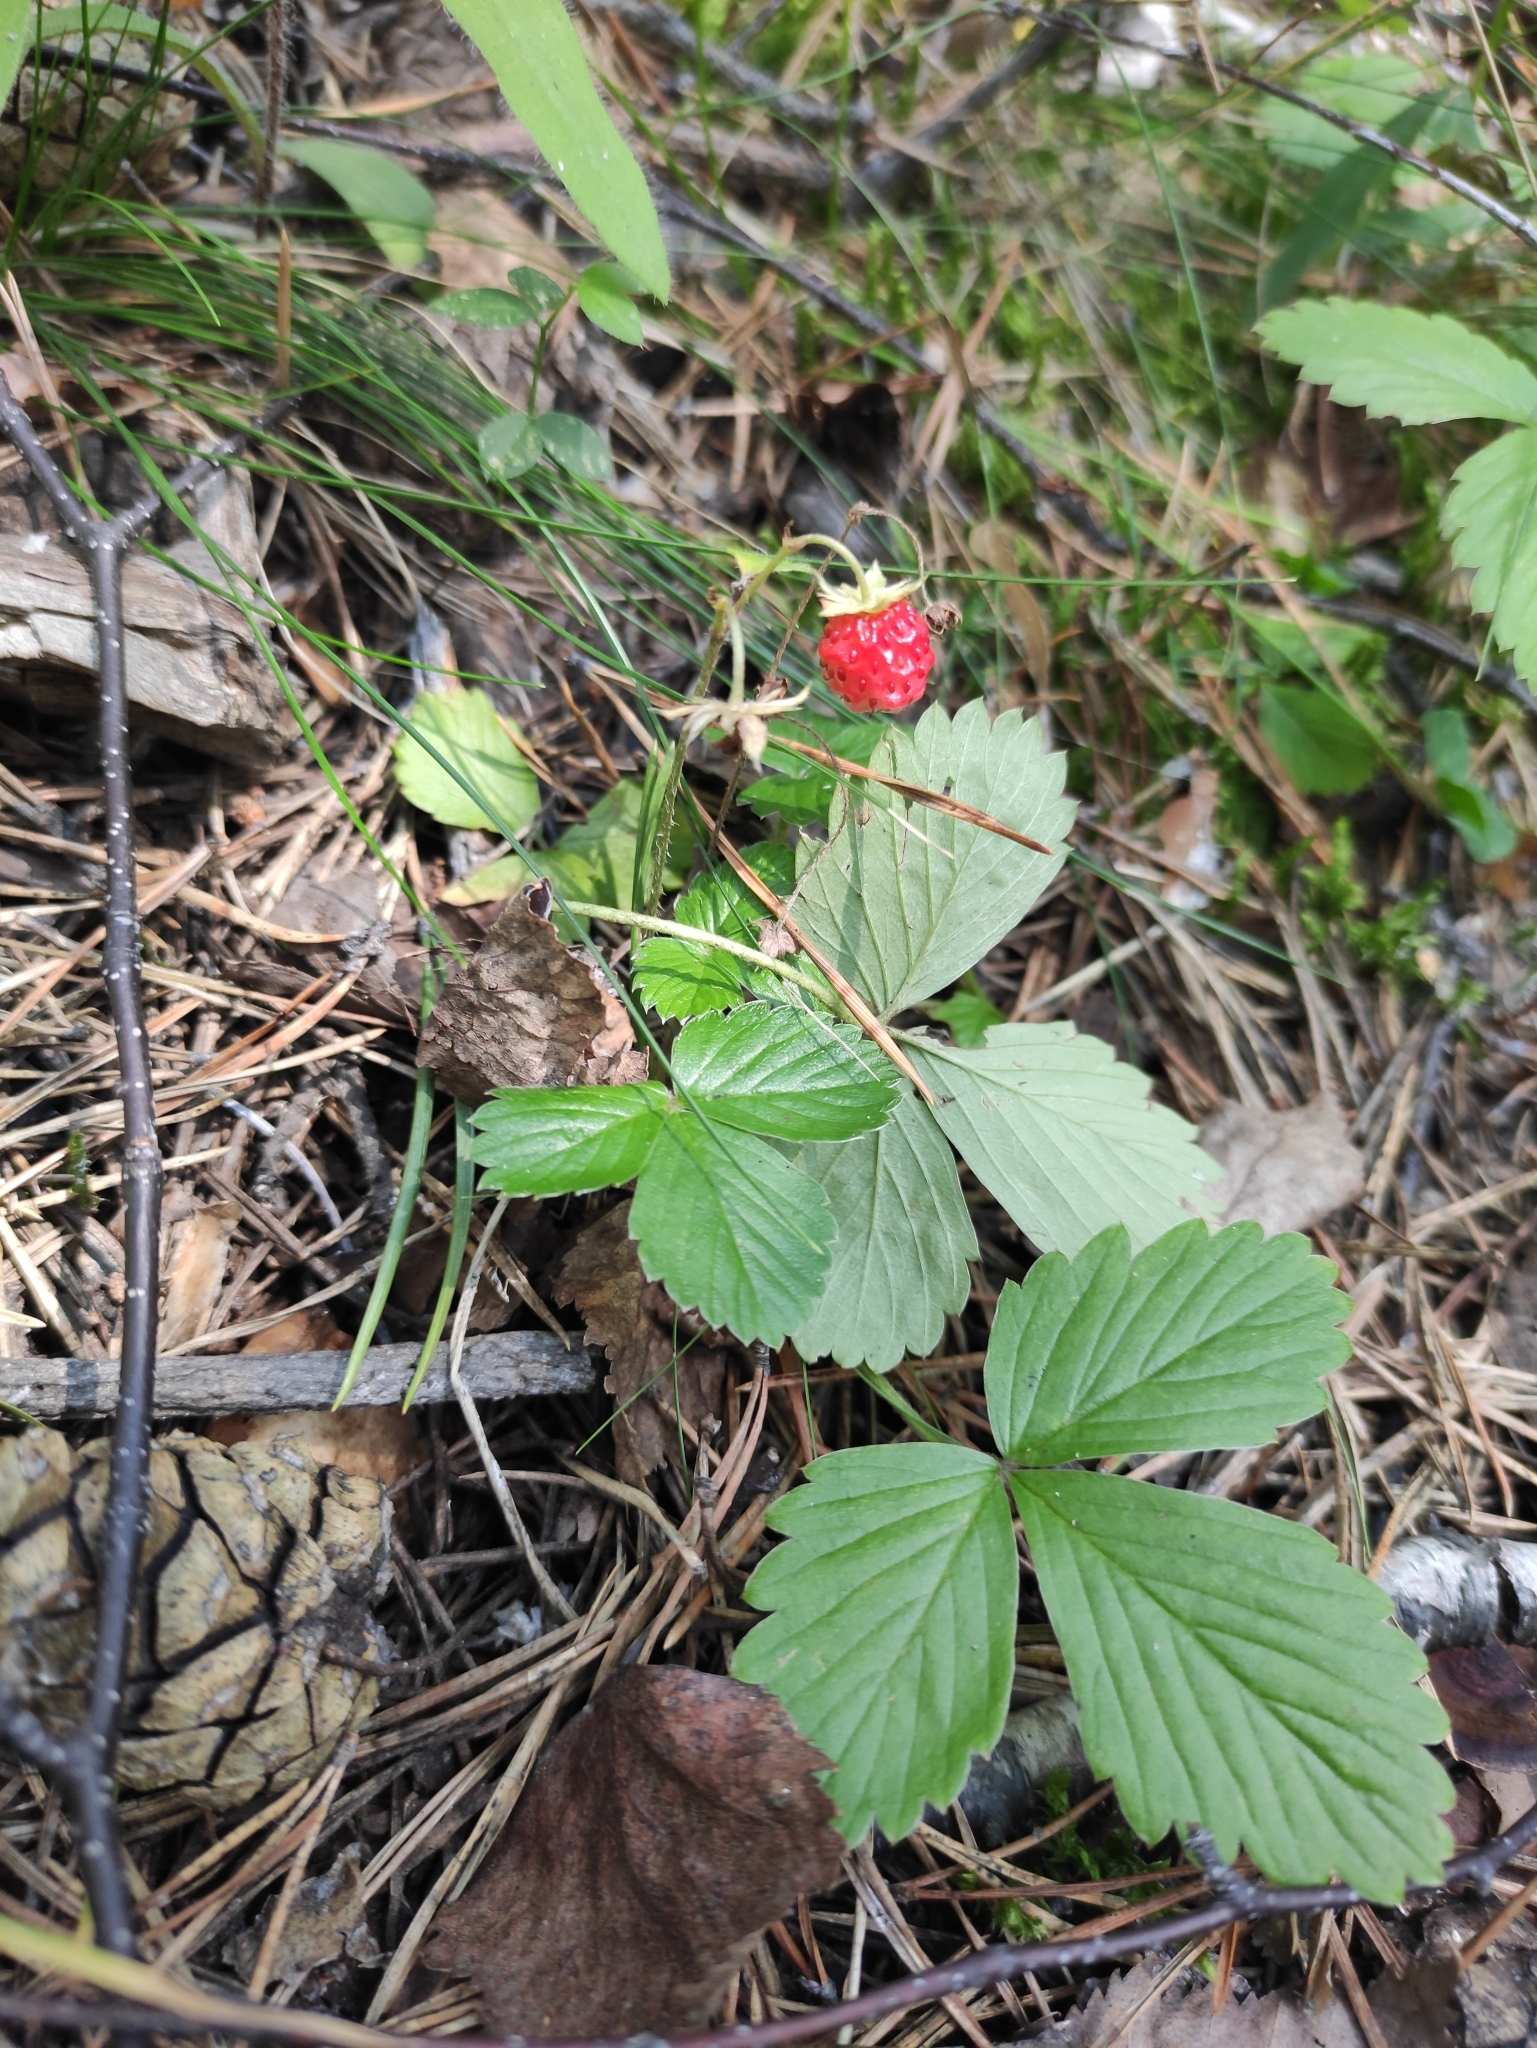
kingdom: Plantae
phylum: Tracheophyta
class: Magnoliopsida
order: Rosales
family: Rosaceae
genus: Fragaria
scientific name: Fragaria vesca
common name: Wild strawberry
